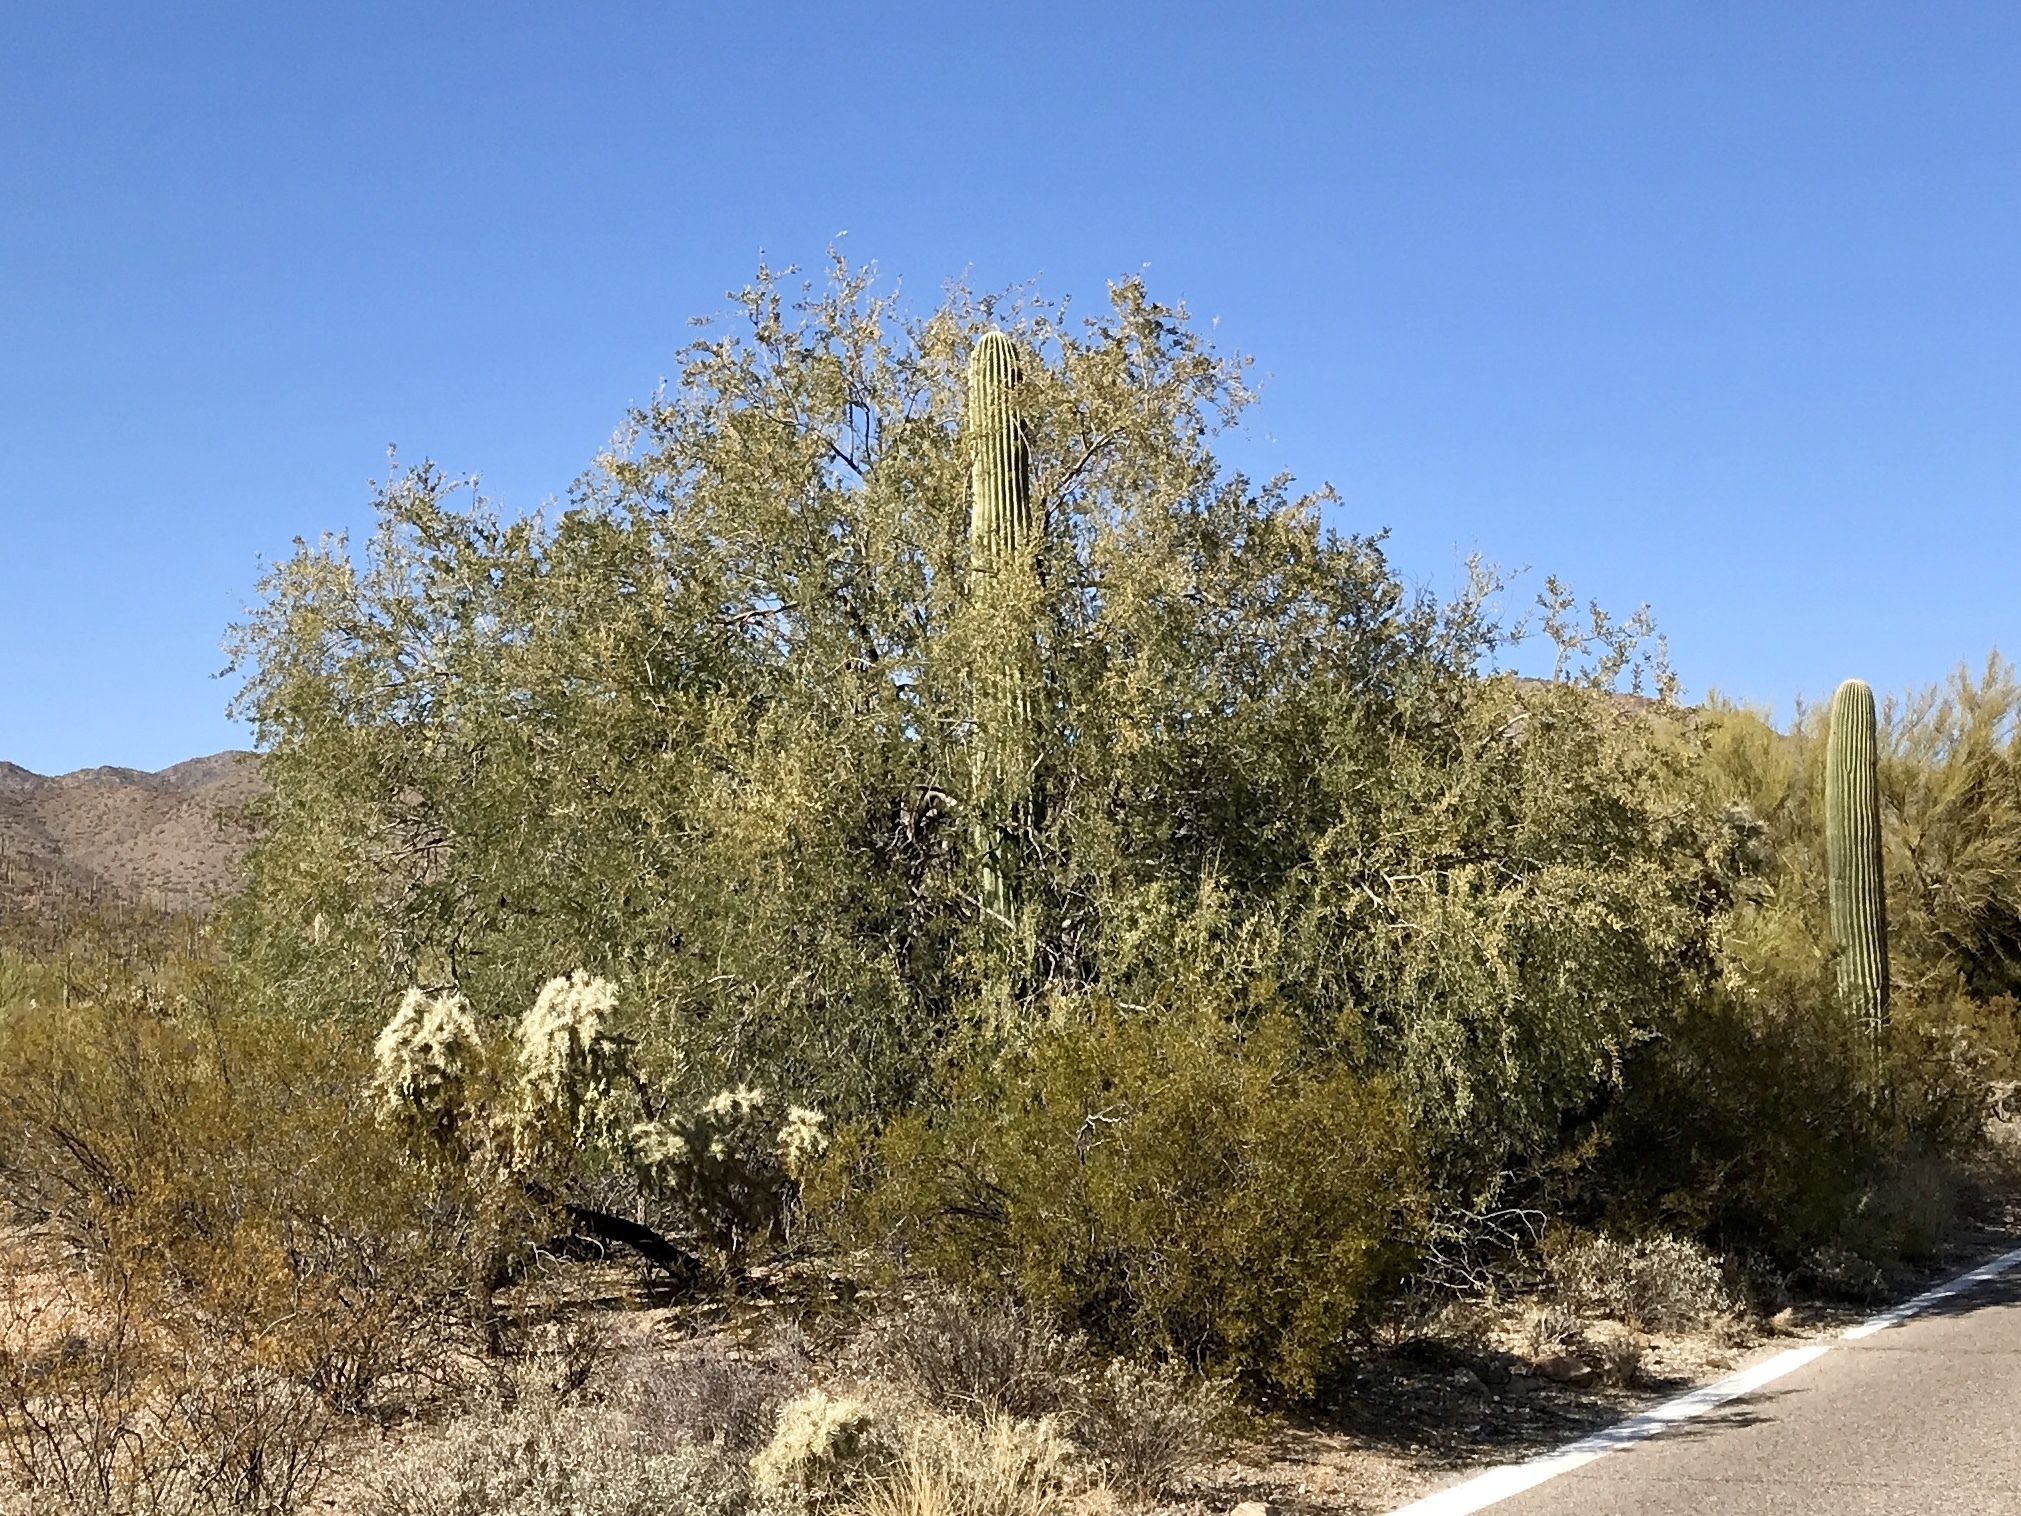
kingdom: Plantae
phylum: Tracheophyta
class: Magnoliopsida
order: Fabales
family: Fabaceae
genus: Olneya
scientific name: Olneya tesota
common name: Desert ironwood
